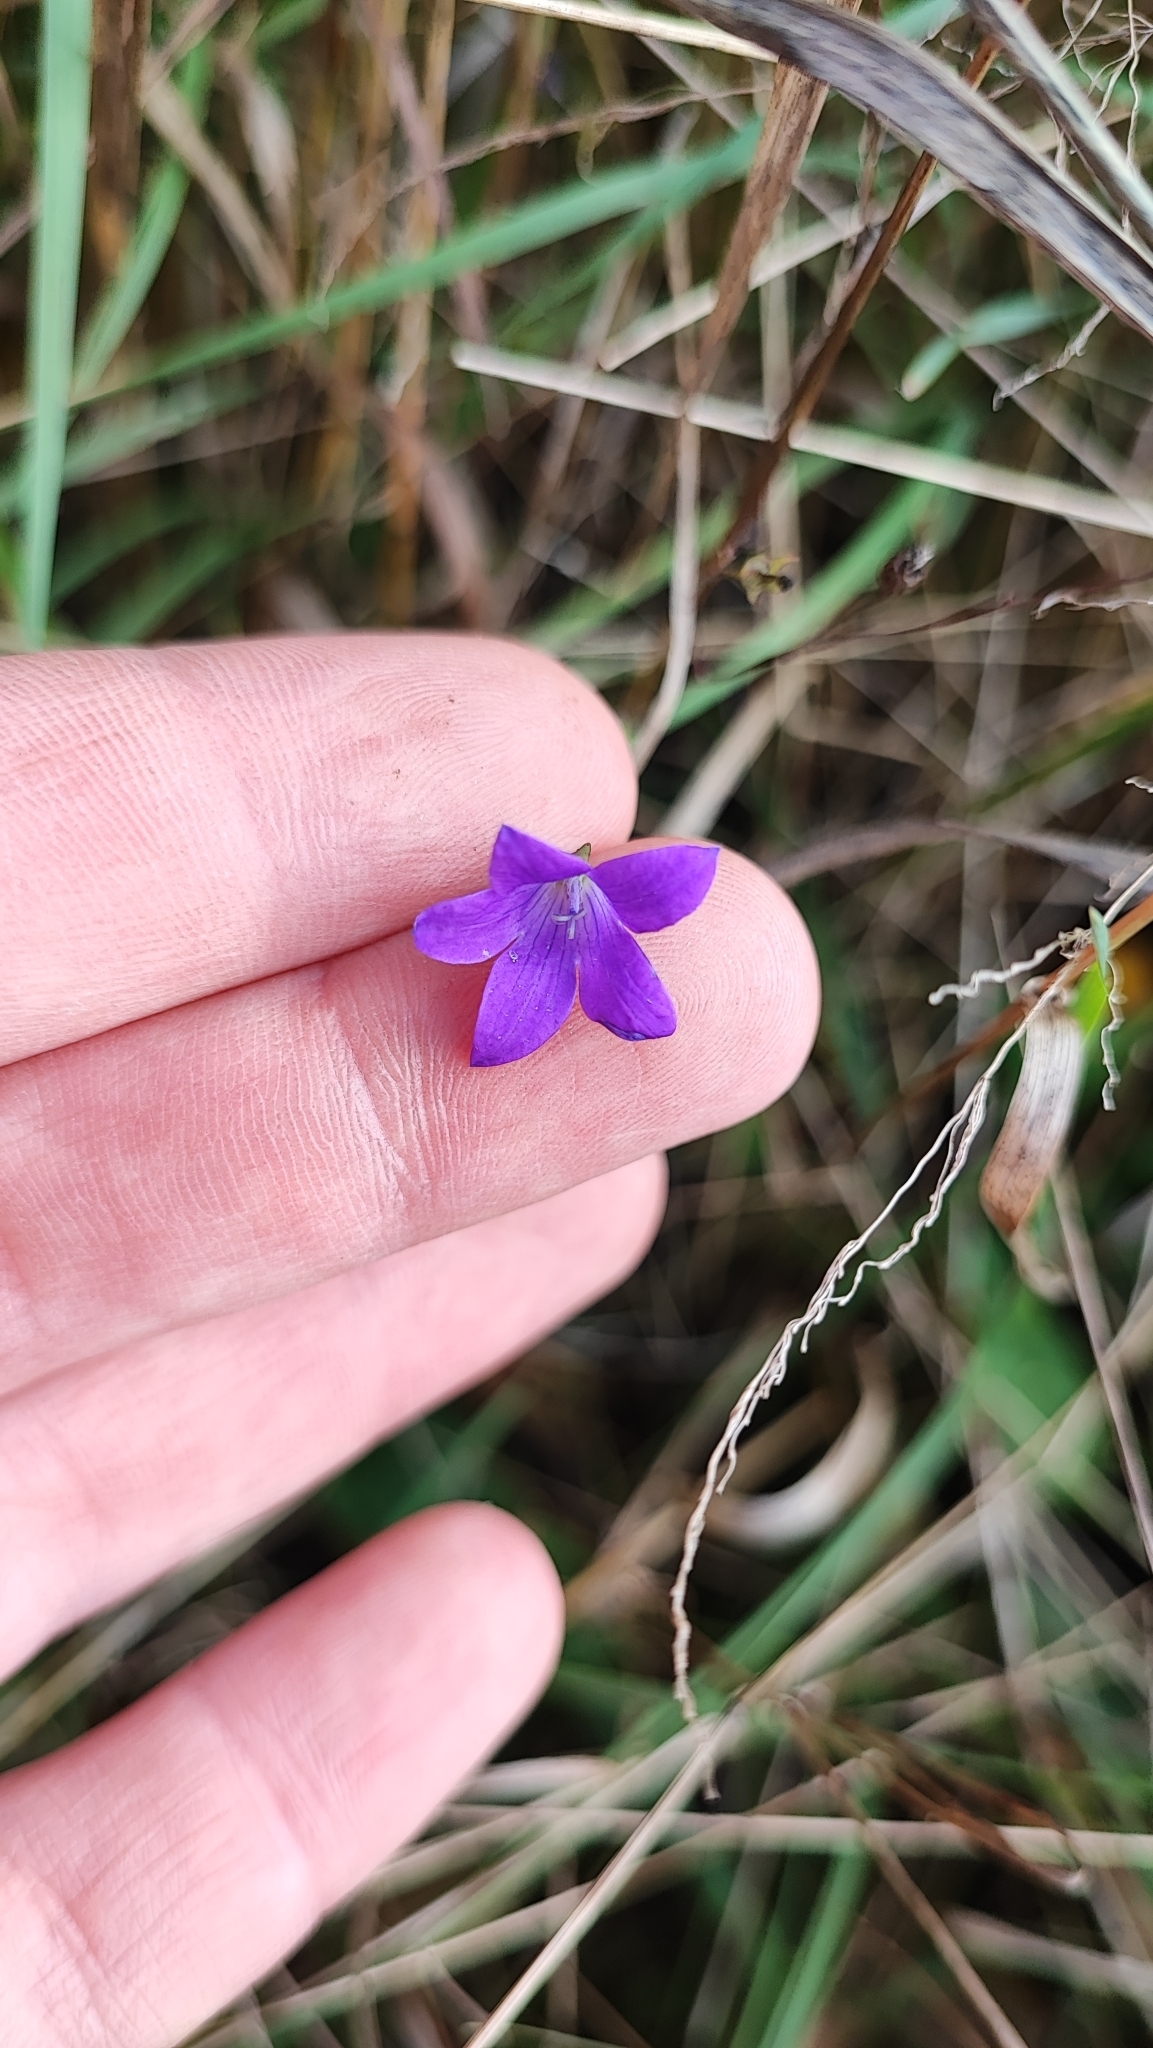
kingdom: Plantae
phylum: Tracheophyta
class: Magnoliopsida
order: Asterales
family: Campanulaceae
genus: Campanula
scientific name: Campanula patula
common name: Spreading bellflower
